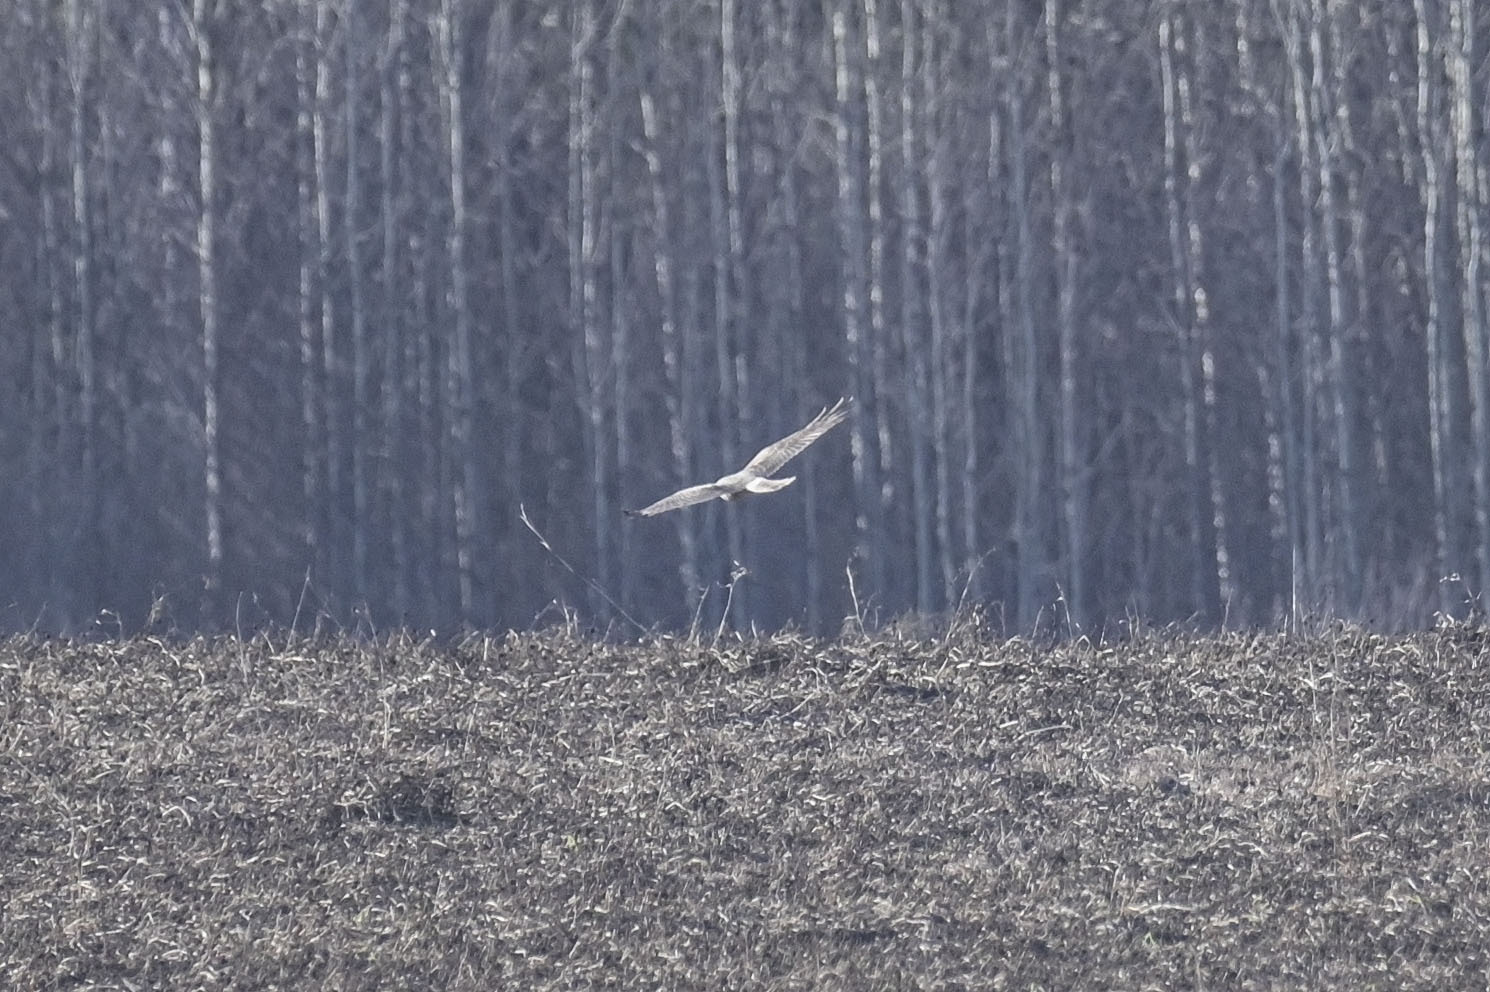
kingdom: Animalia
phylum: Chordata
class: Aves
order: Accipitriformes
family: Accipitridae
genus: Circus
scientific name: Circus cyaneus
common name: Hen harrier
